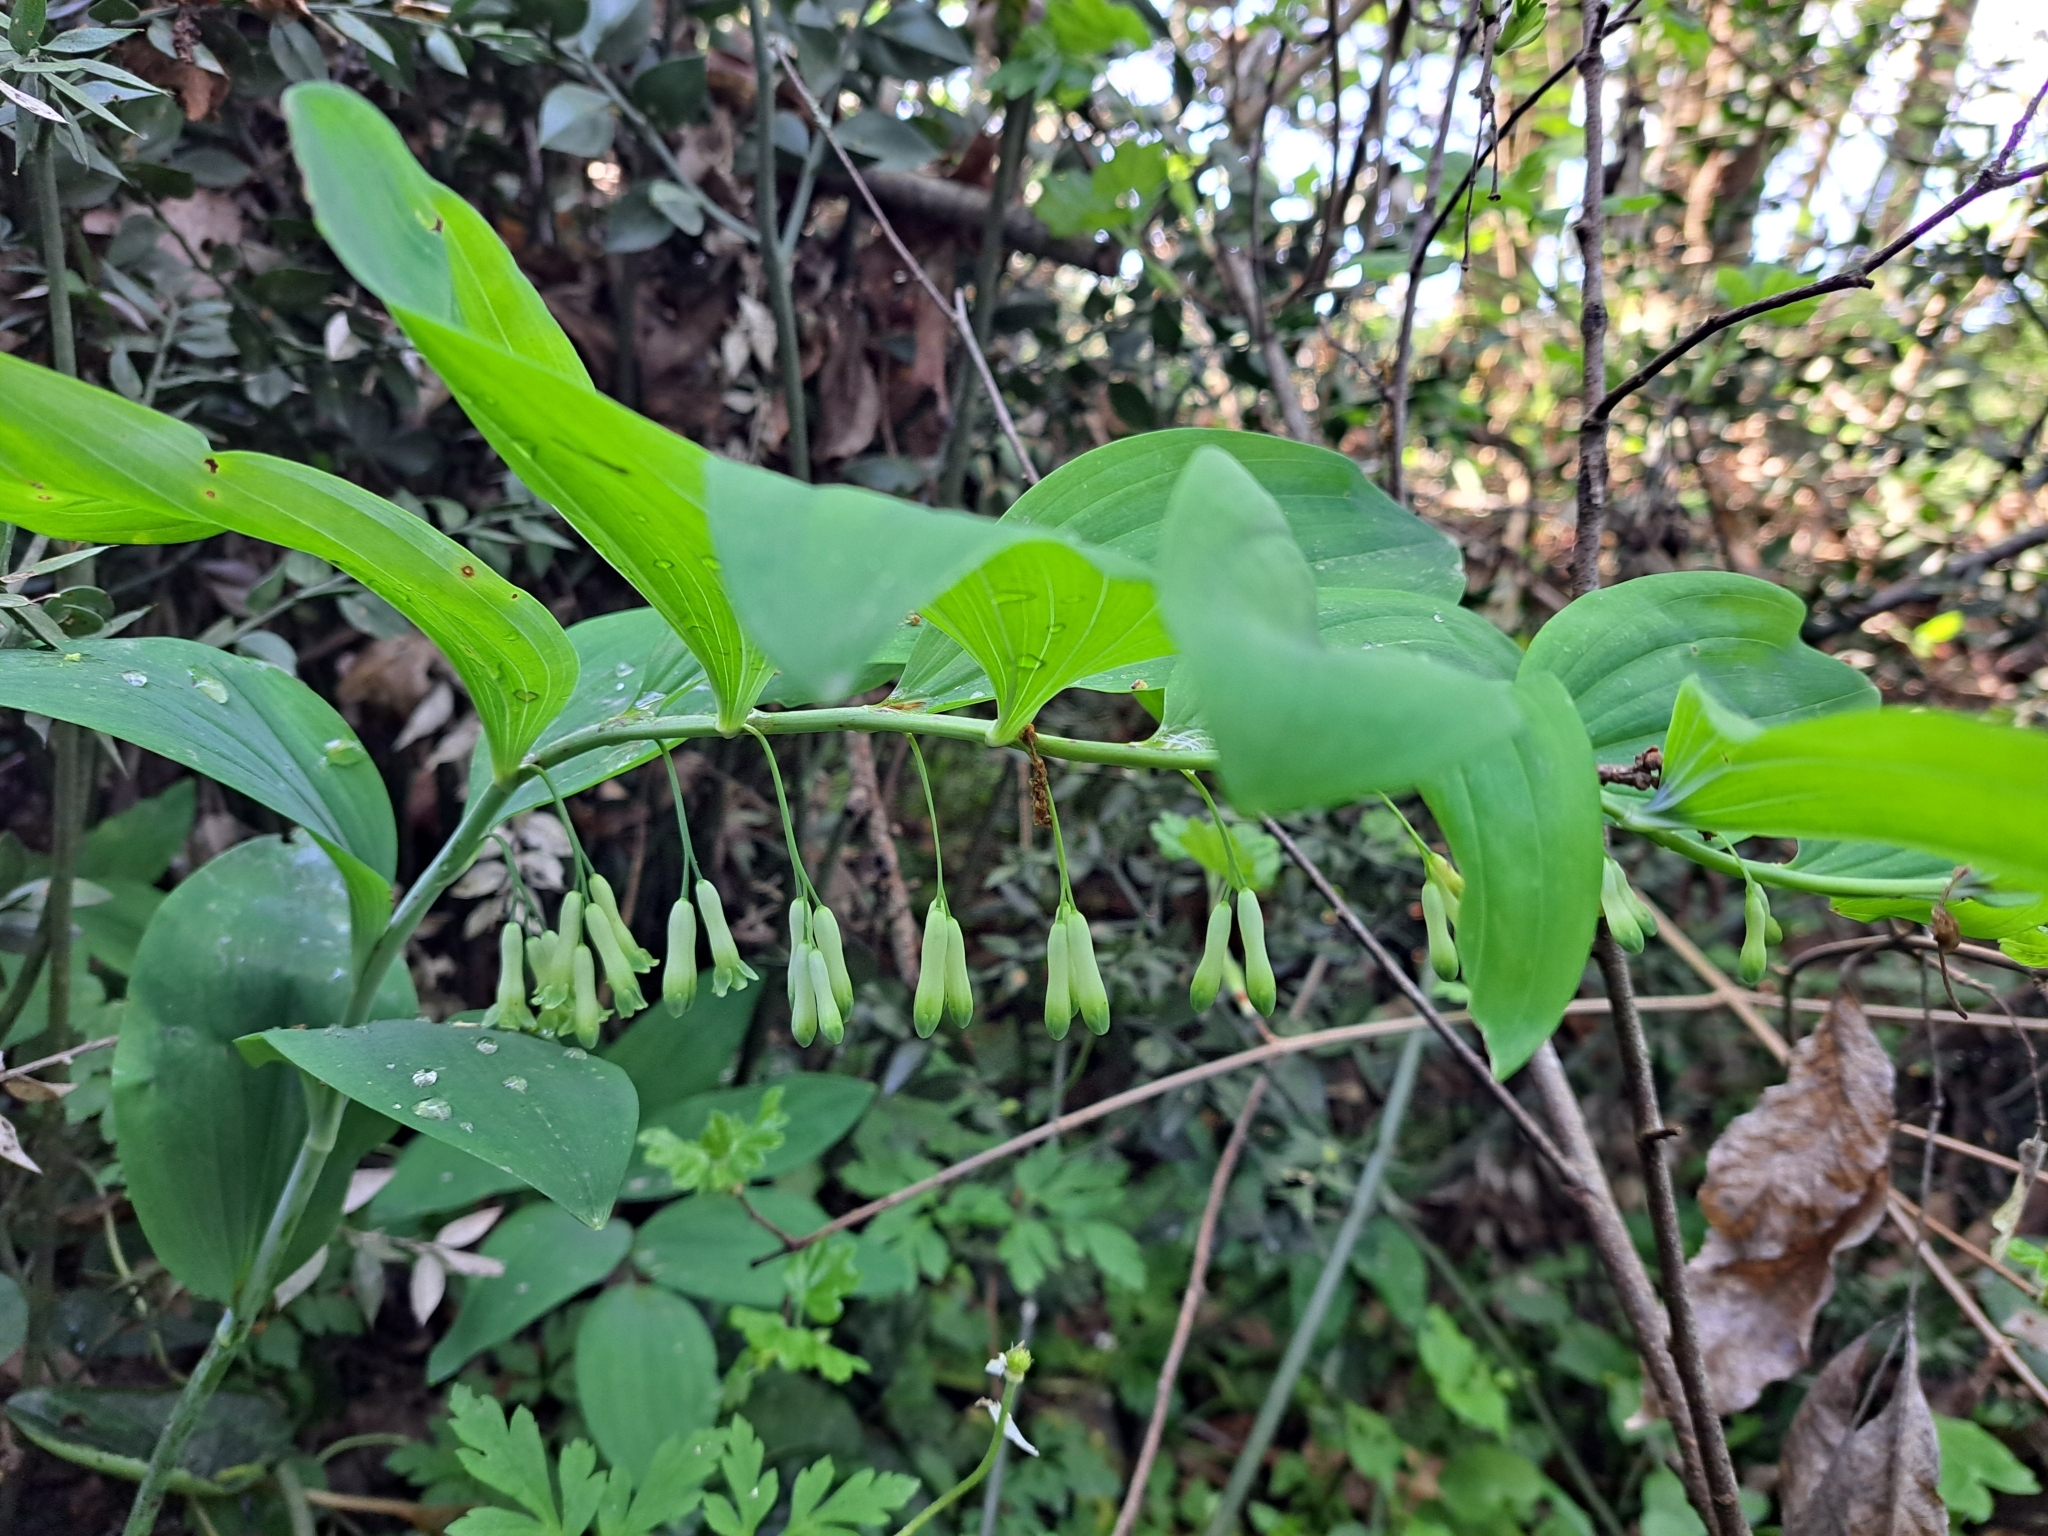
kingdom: Plantae
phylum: Tracheophyta
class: Liliopsida
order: Asparagales
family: Asparagaceae
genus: Polygonatum
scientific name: Polygonatum multiflorum
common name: Solomon's-seal
